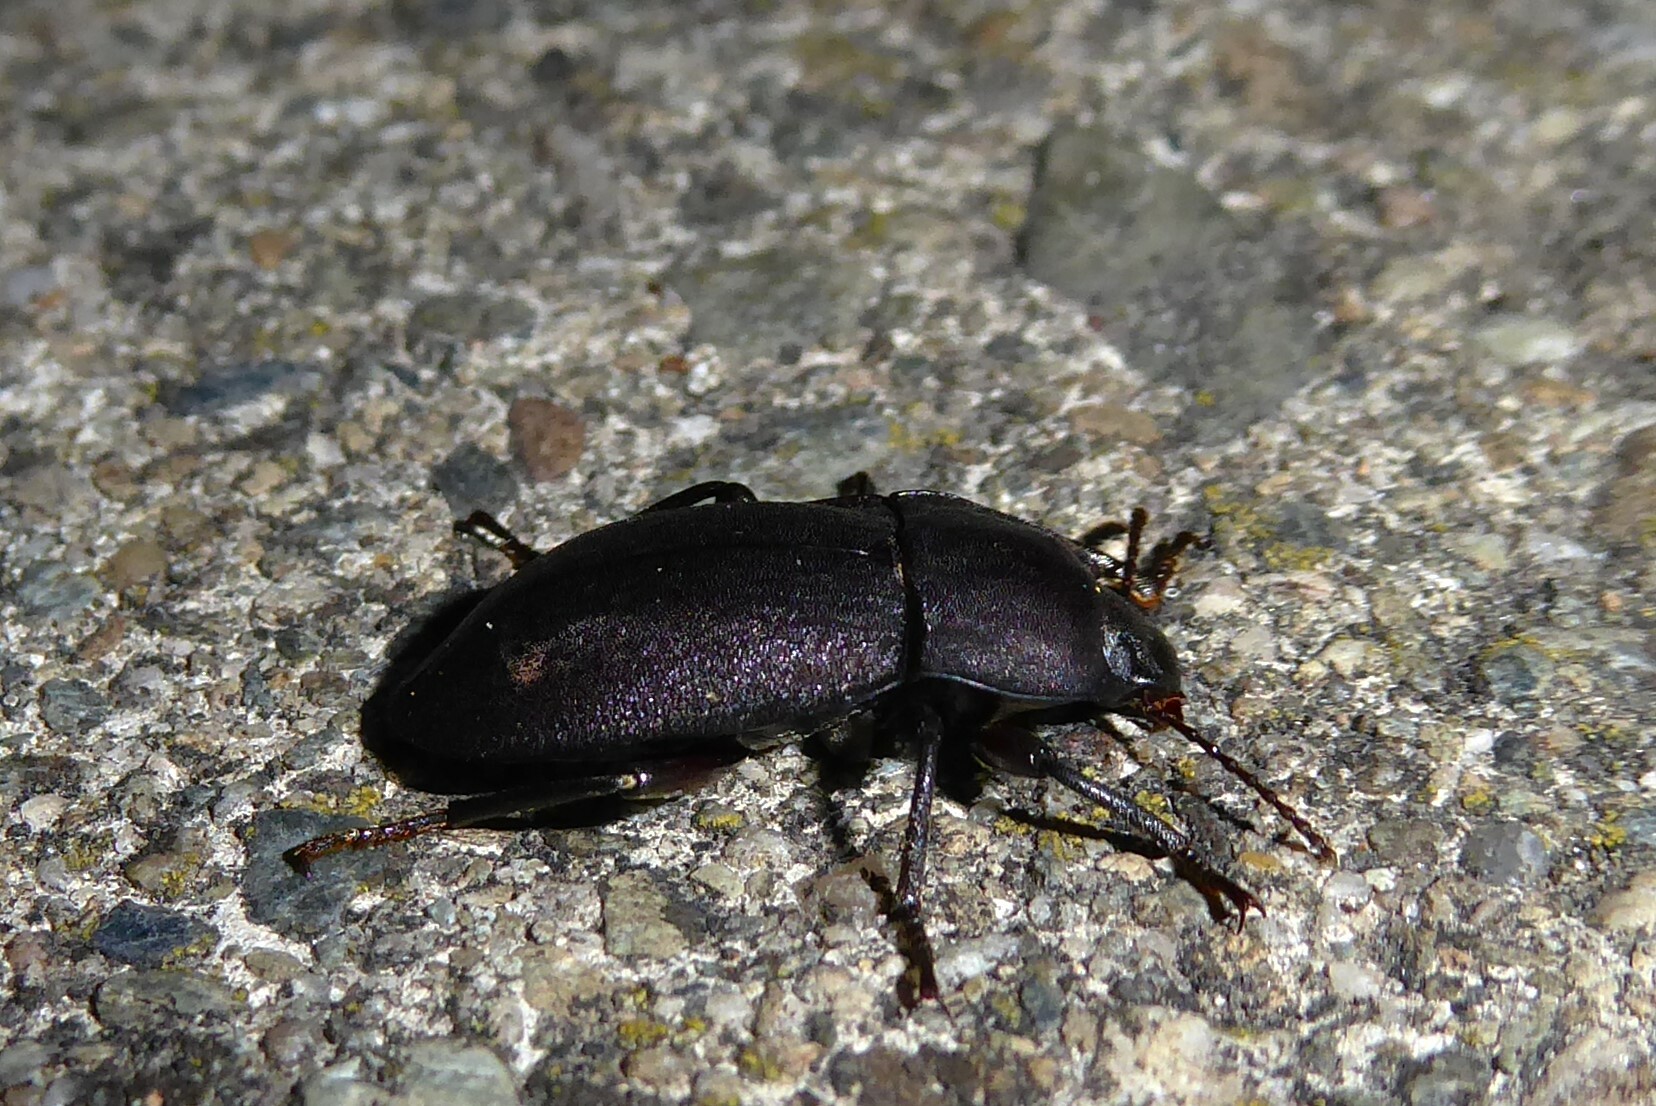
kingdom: Animalia
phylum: Arthropoda
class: Insecta
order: Coleoptera
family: Tenebrionidae
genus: Mimopeus
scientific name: Mimopeus
